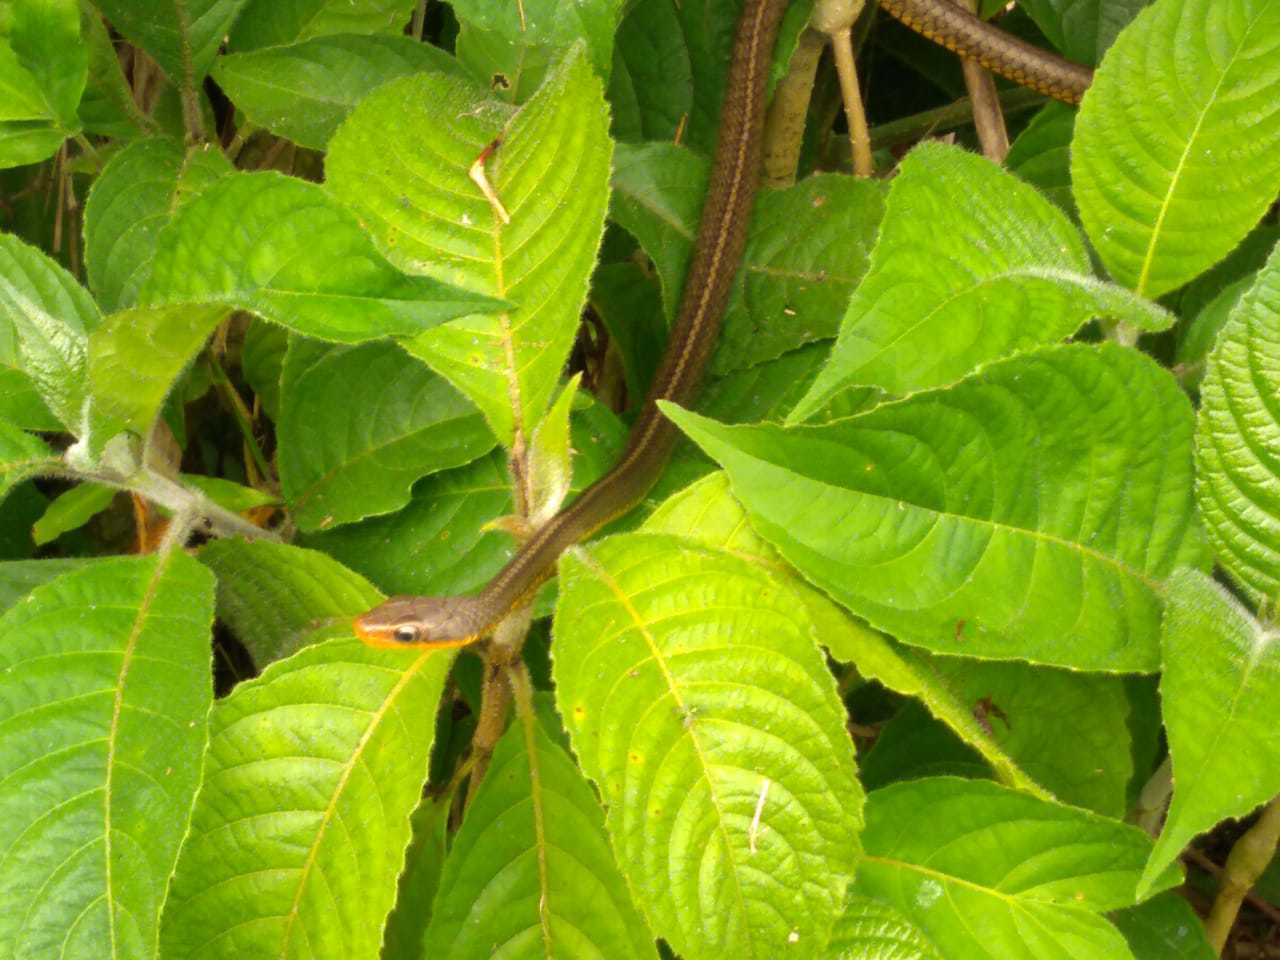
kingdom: Animalia
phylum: Chordata
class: Squamata
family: Colubridae
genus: Chironius
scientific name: Chironius carinatus
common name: Sipo
